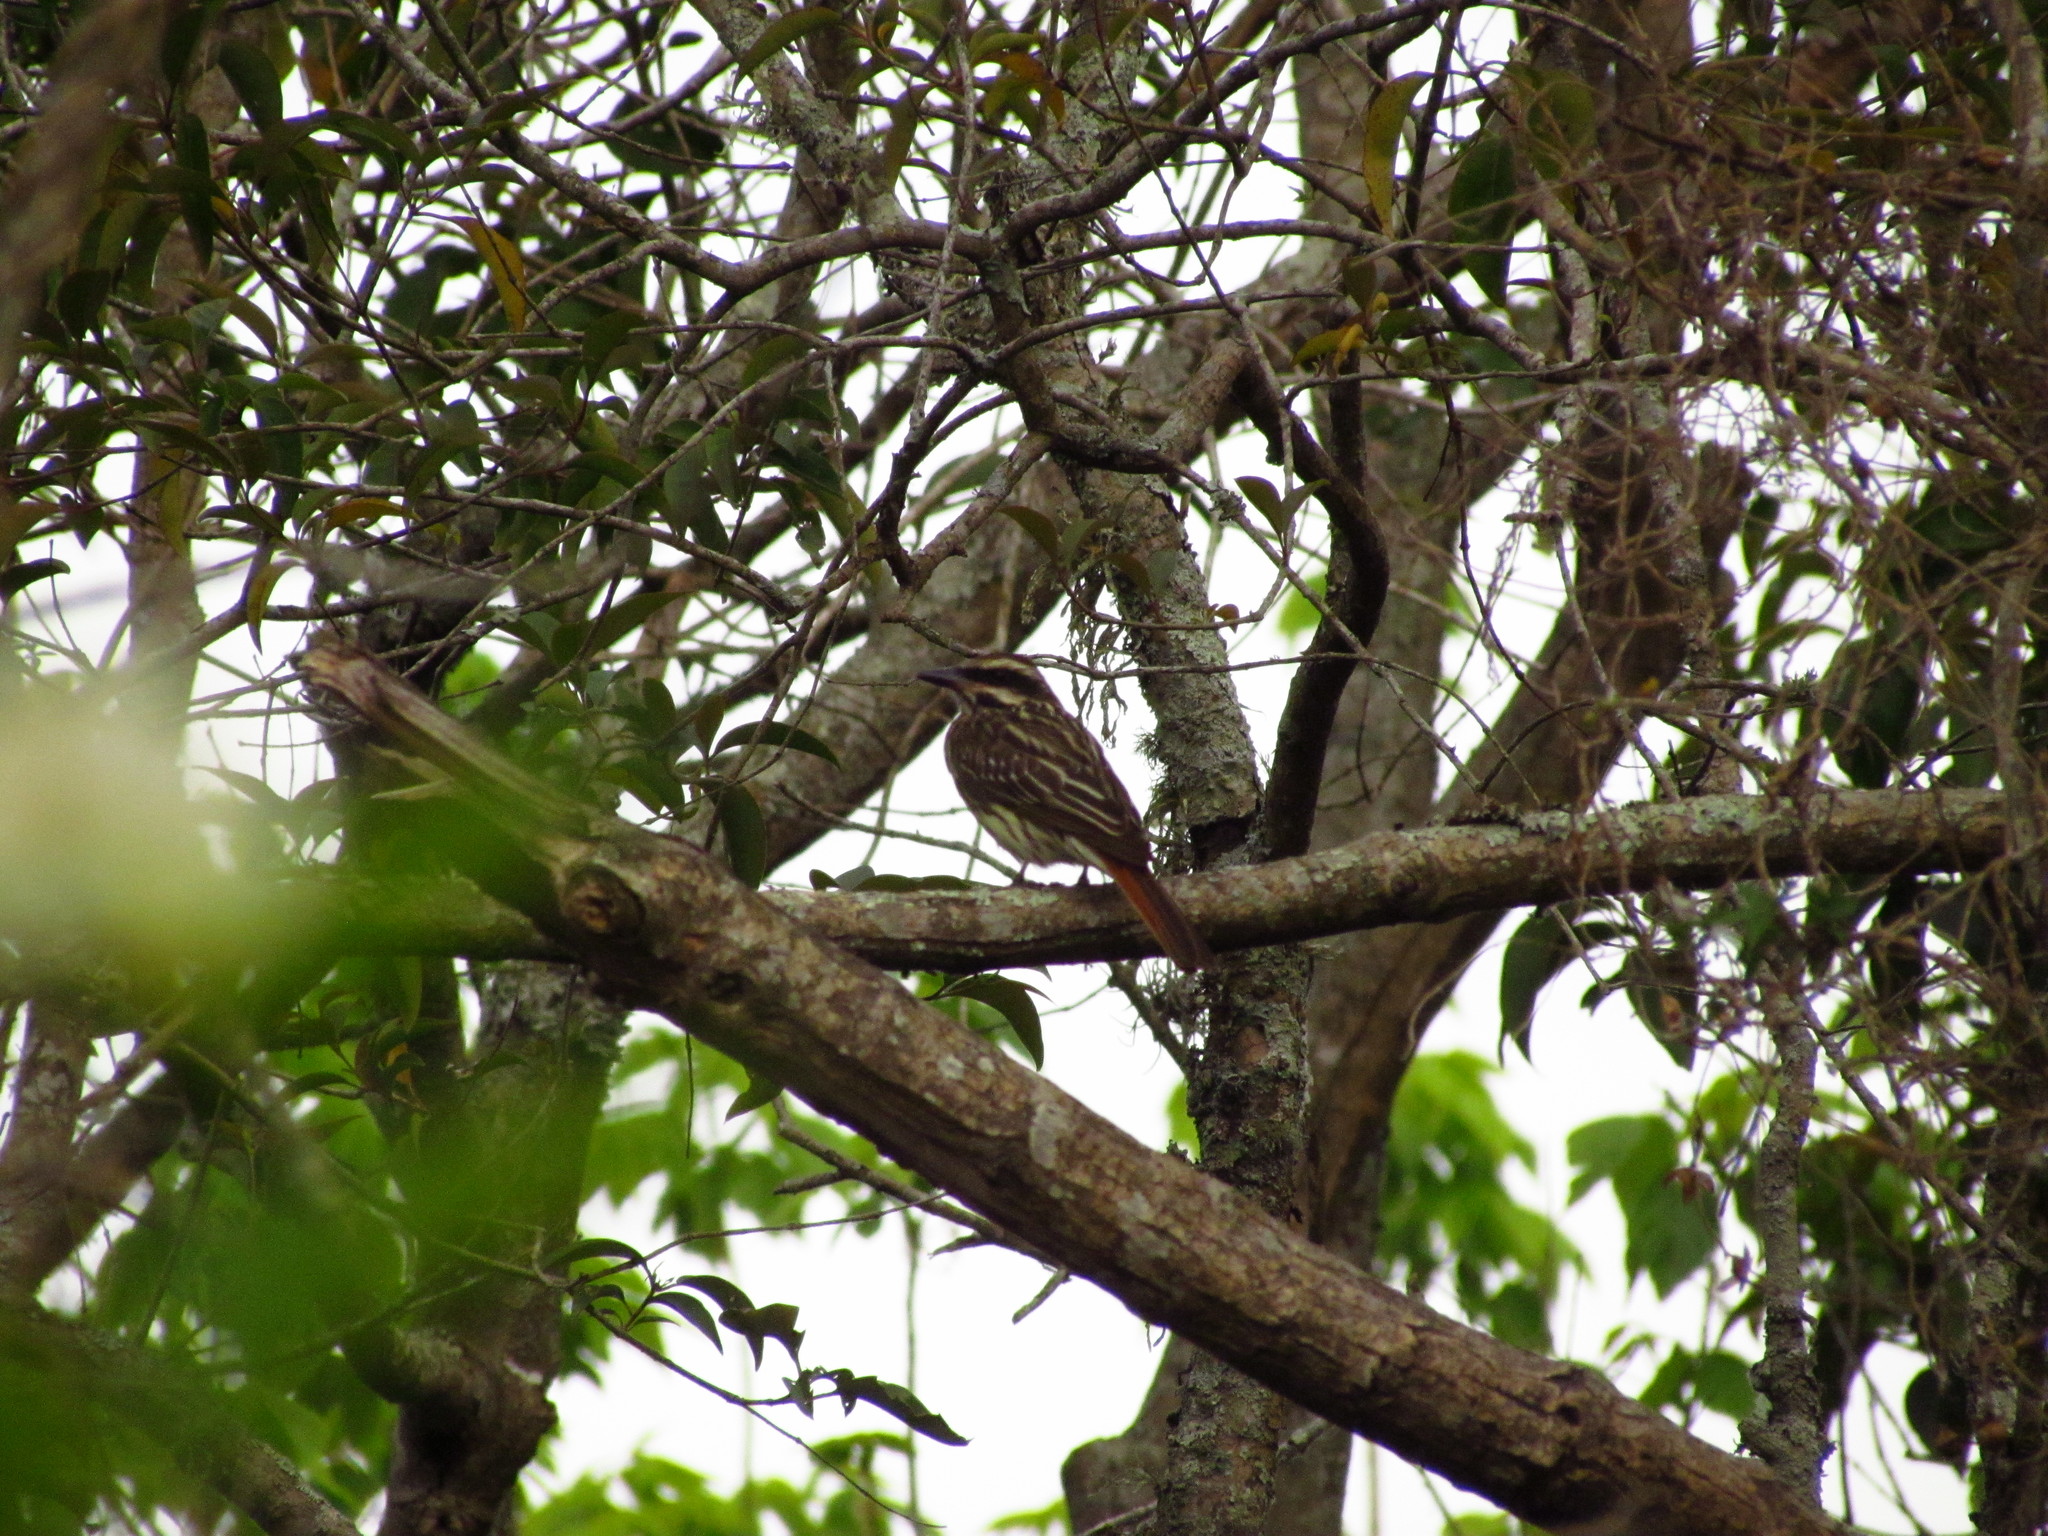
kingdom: Animalia
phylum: Chordata
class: Aves
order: Passeriformes
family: Tyrannidae
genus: Myiodynastes
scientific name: Myiodynastes maculatus
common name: Streaked flycatcher
